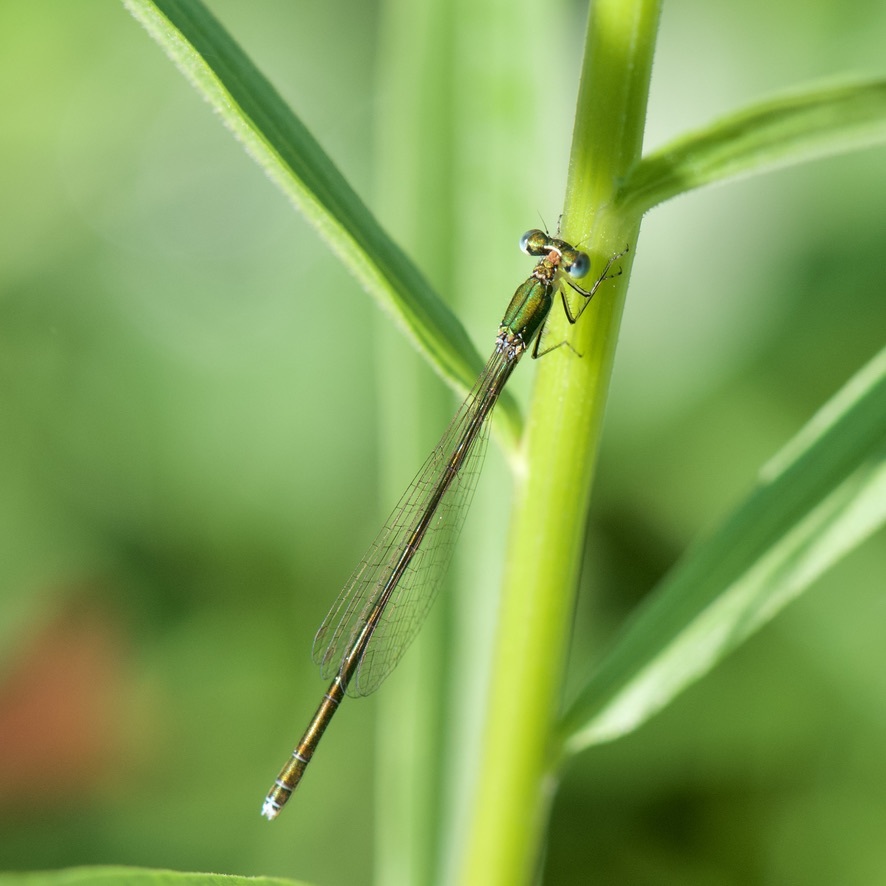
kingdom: Animalia
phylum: Arthropoda
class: Insecta
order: Odonata
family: Coenagrionidae
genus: Nehalennia
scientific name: Nehalennia irene
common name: Sedge sprite
